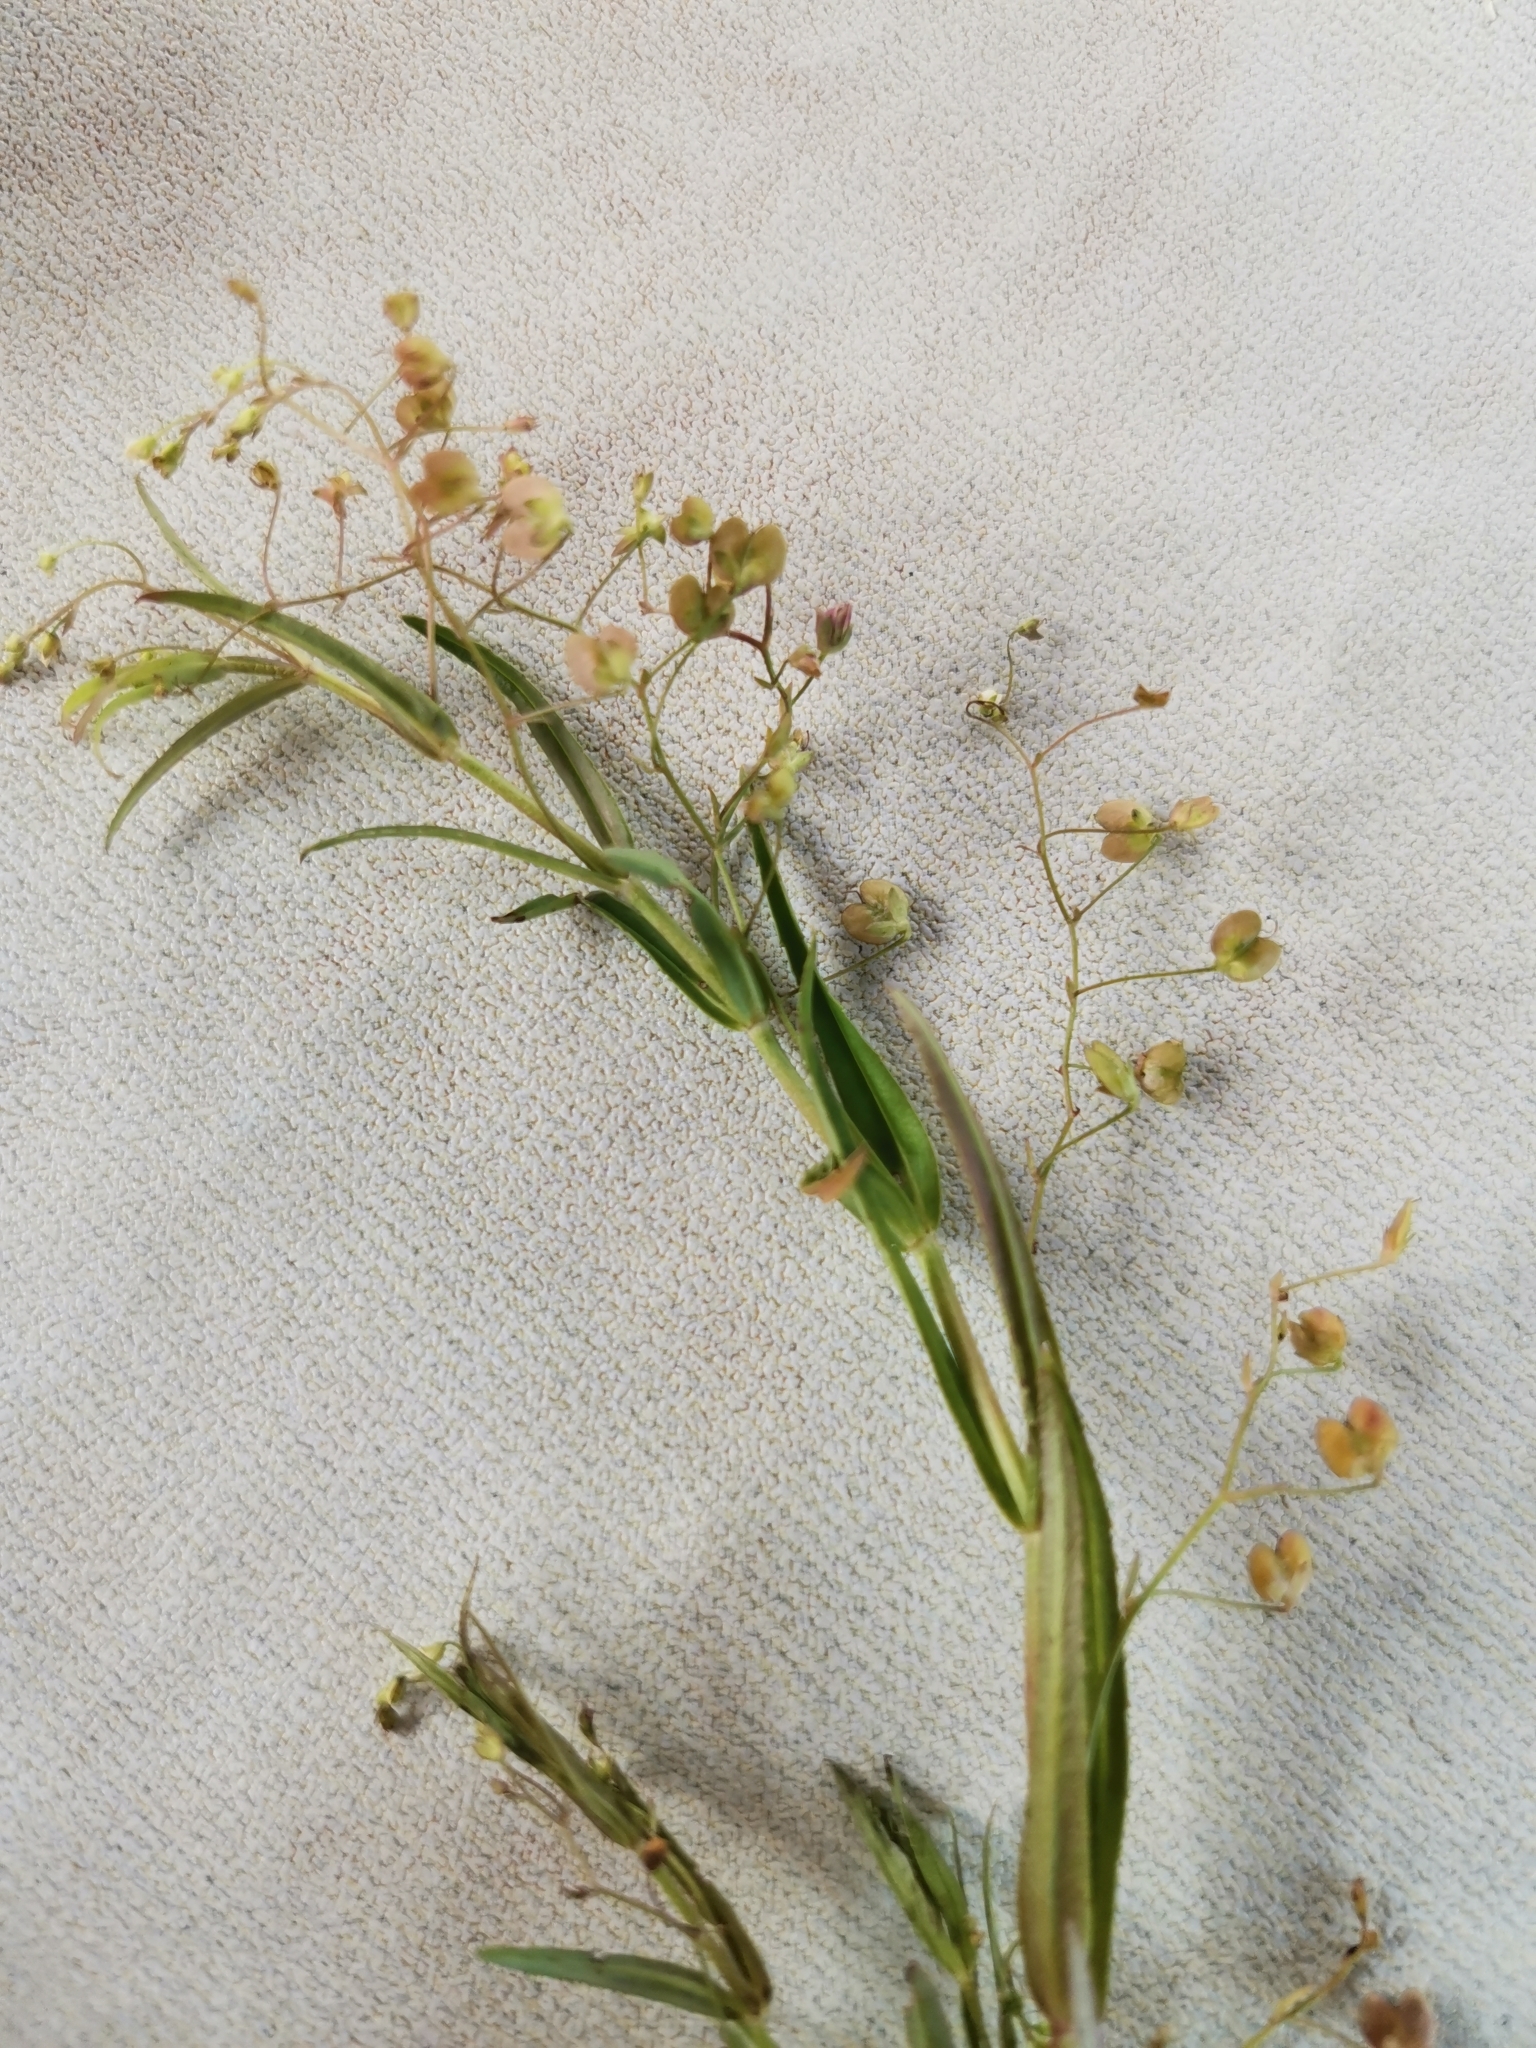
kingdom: Plantae
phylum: Tracheophyta
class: Magnoliopsida
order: Lamiales
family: Plantaginaceae
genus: Veronica
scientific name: Veronica scutellata
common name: Marsh speedwell
